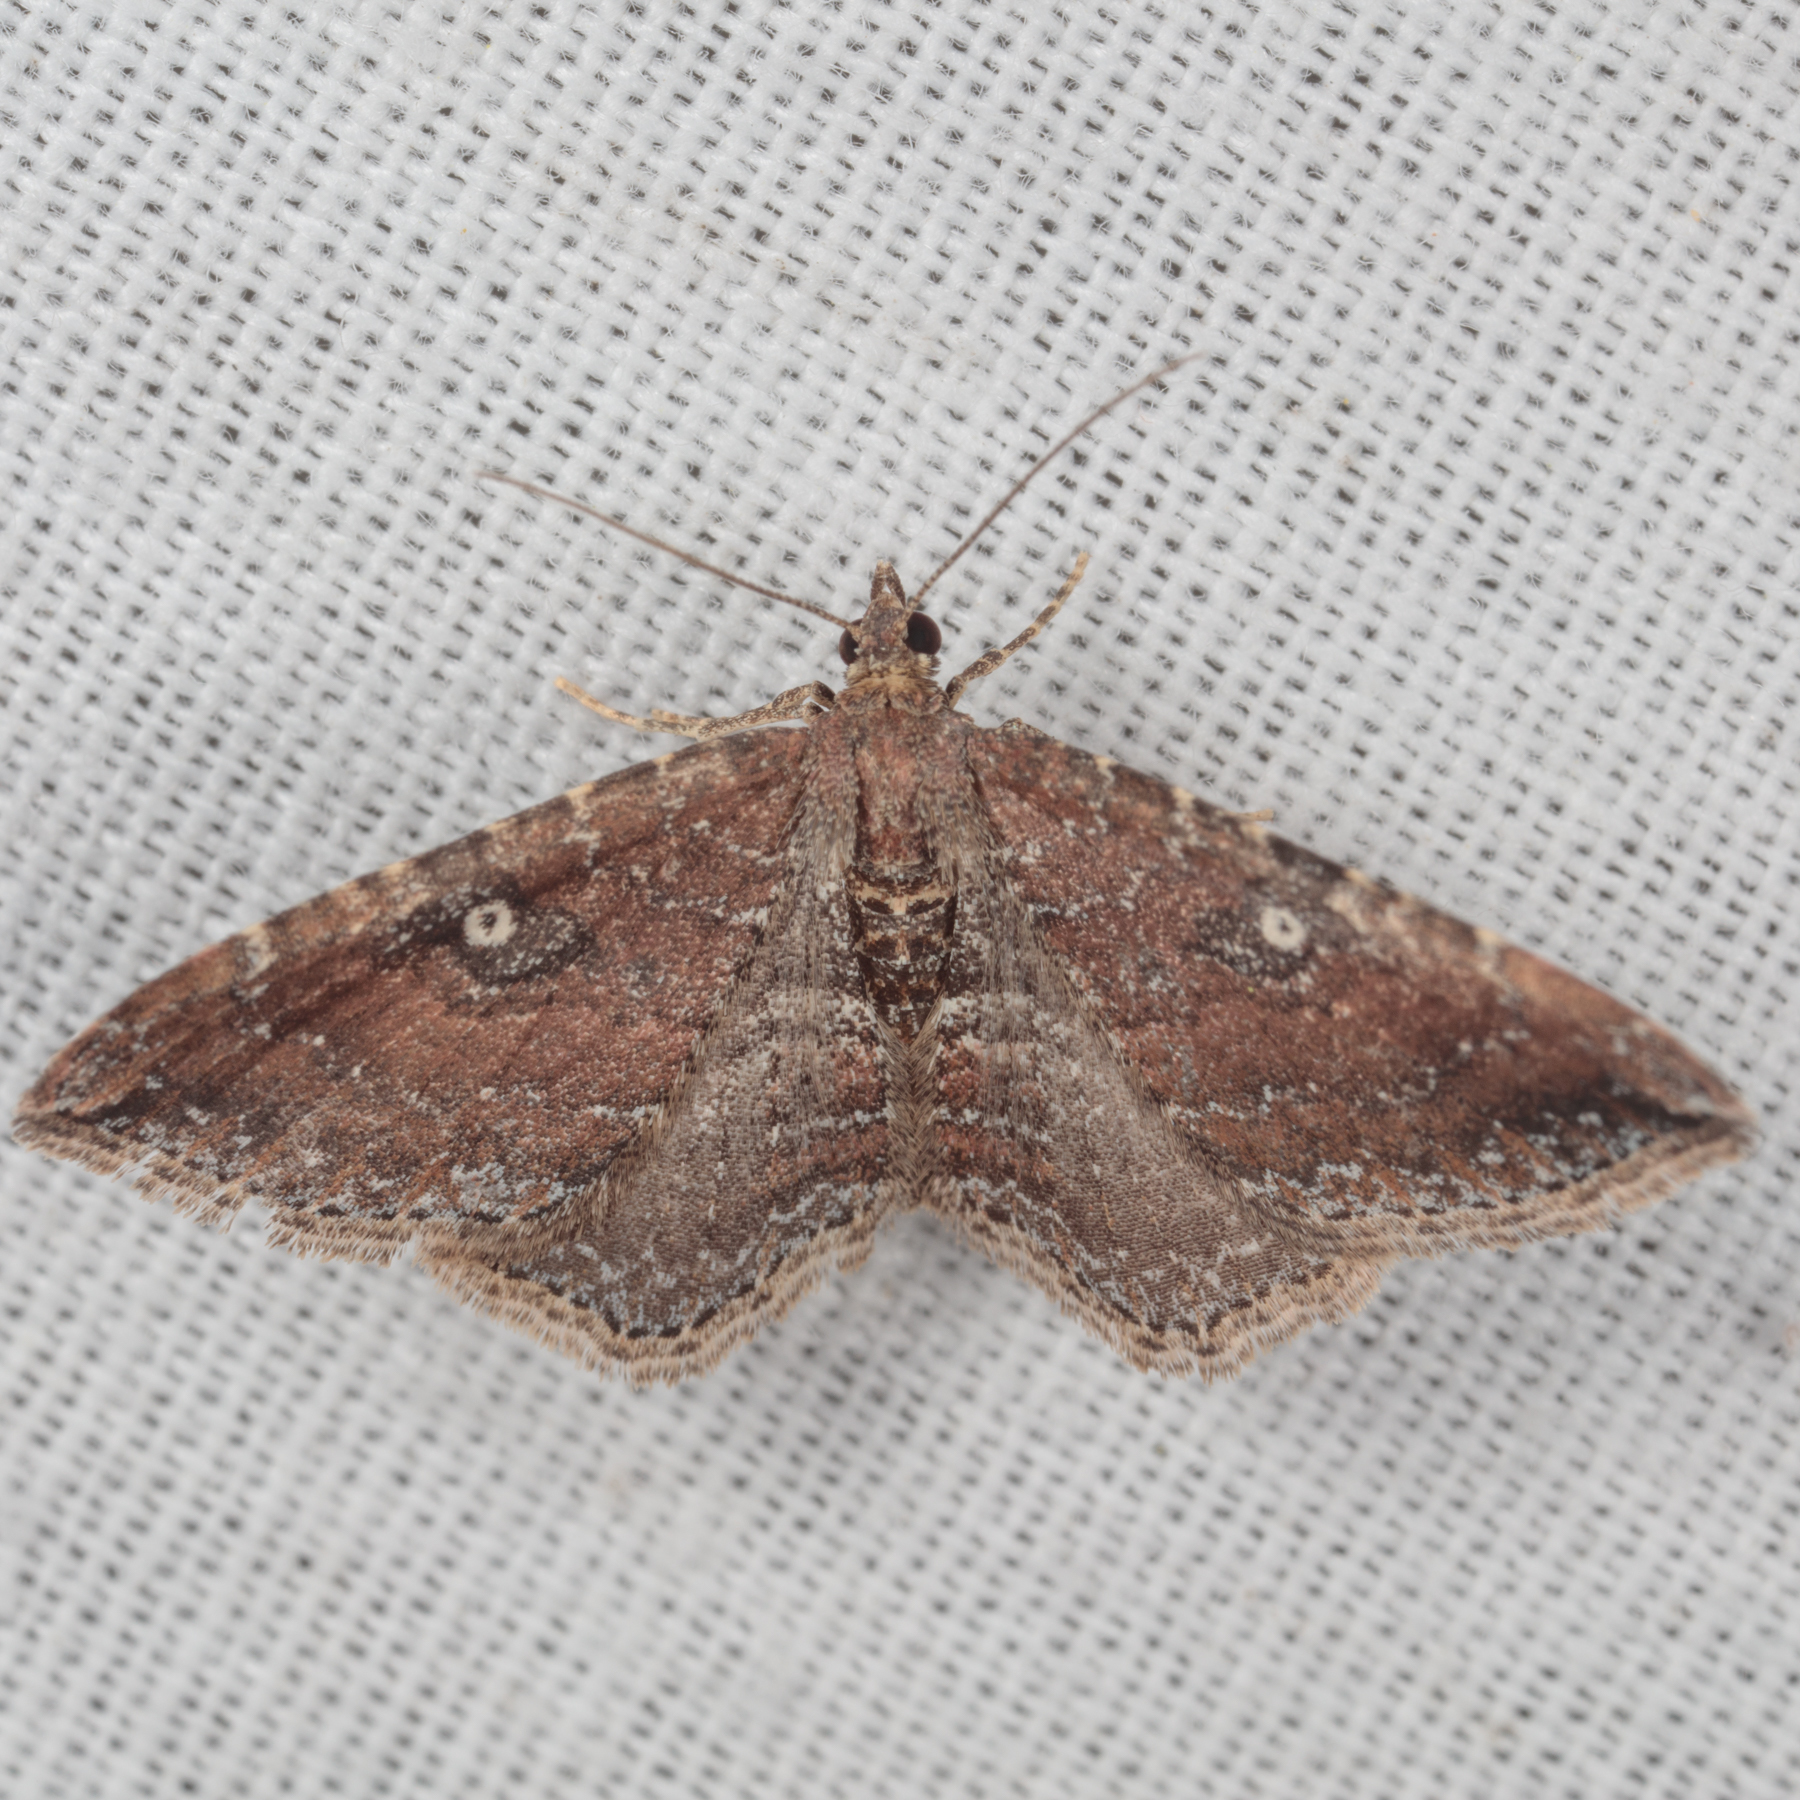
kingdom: Animalia
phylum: Arthropoda
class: Insecta
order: Lepidoptera
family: Geometridae
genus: Orthonama
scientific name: Orthonama obstipata
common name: The gem
